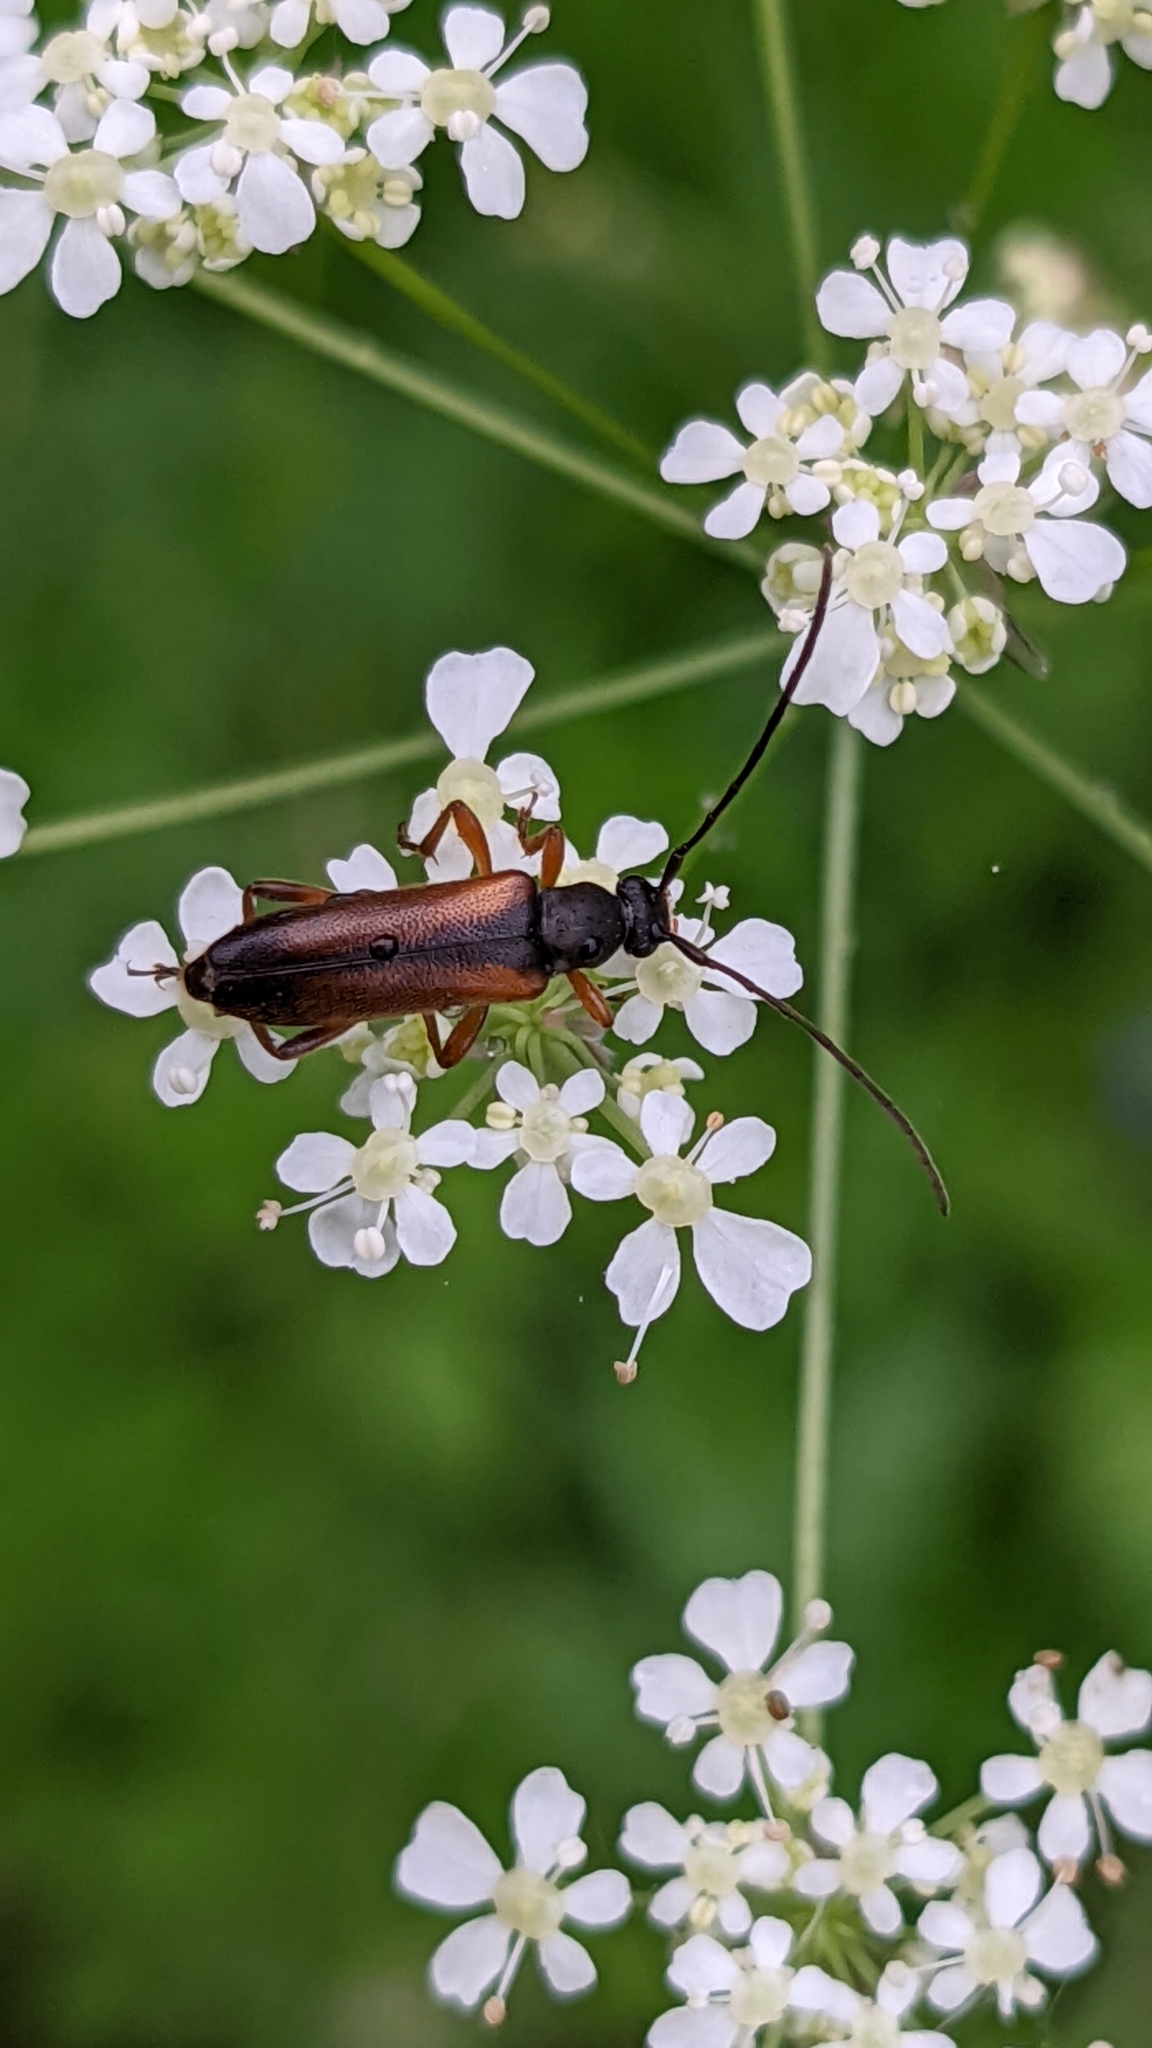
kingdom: Animalia
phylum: Arthropoda
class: Insecta
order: Coleoptera
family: Cerambycidae
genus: Alosterna
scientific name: Alosterna tabacicolor
